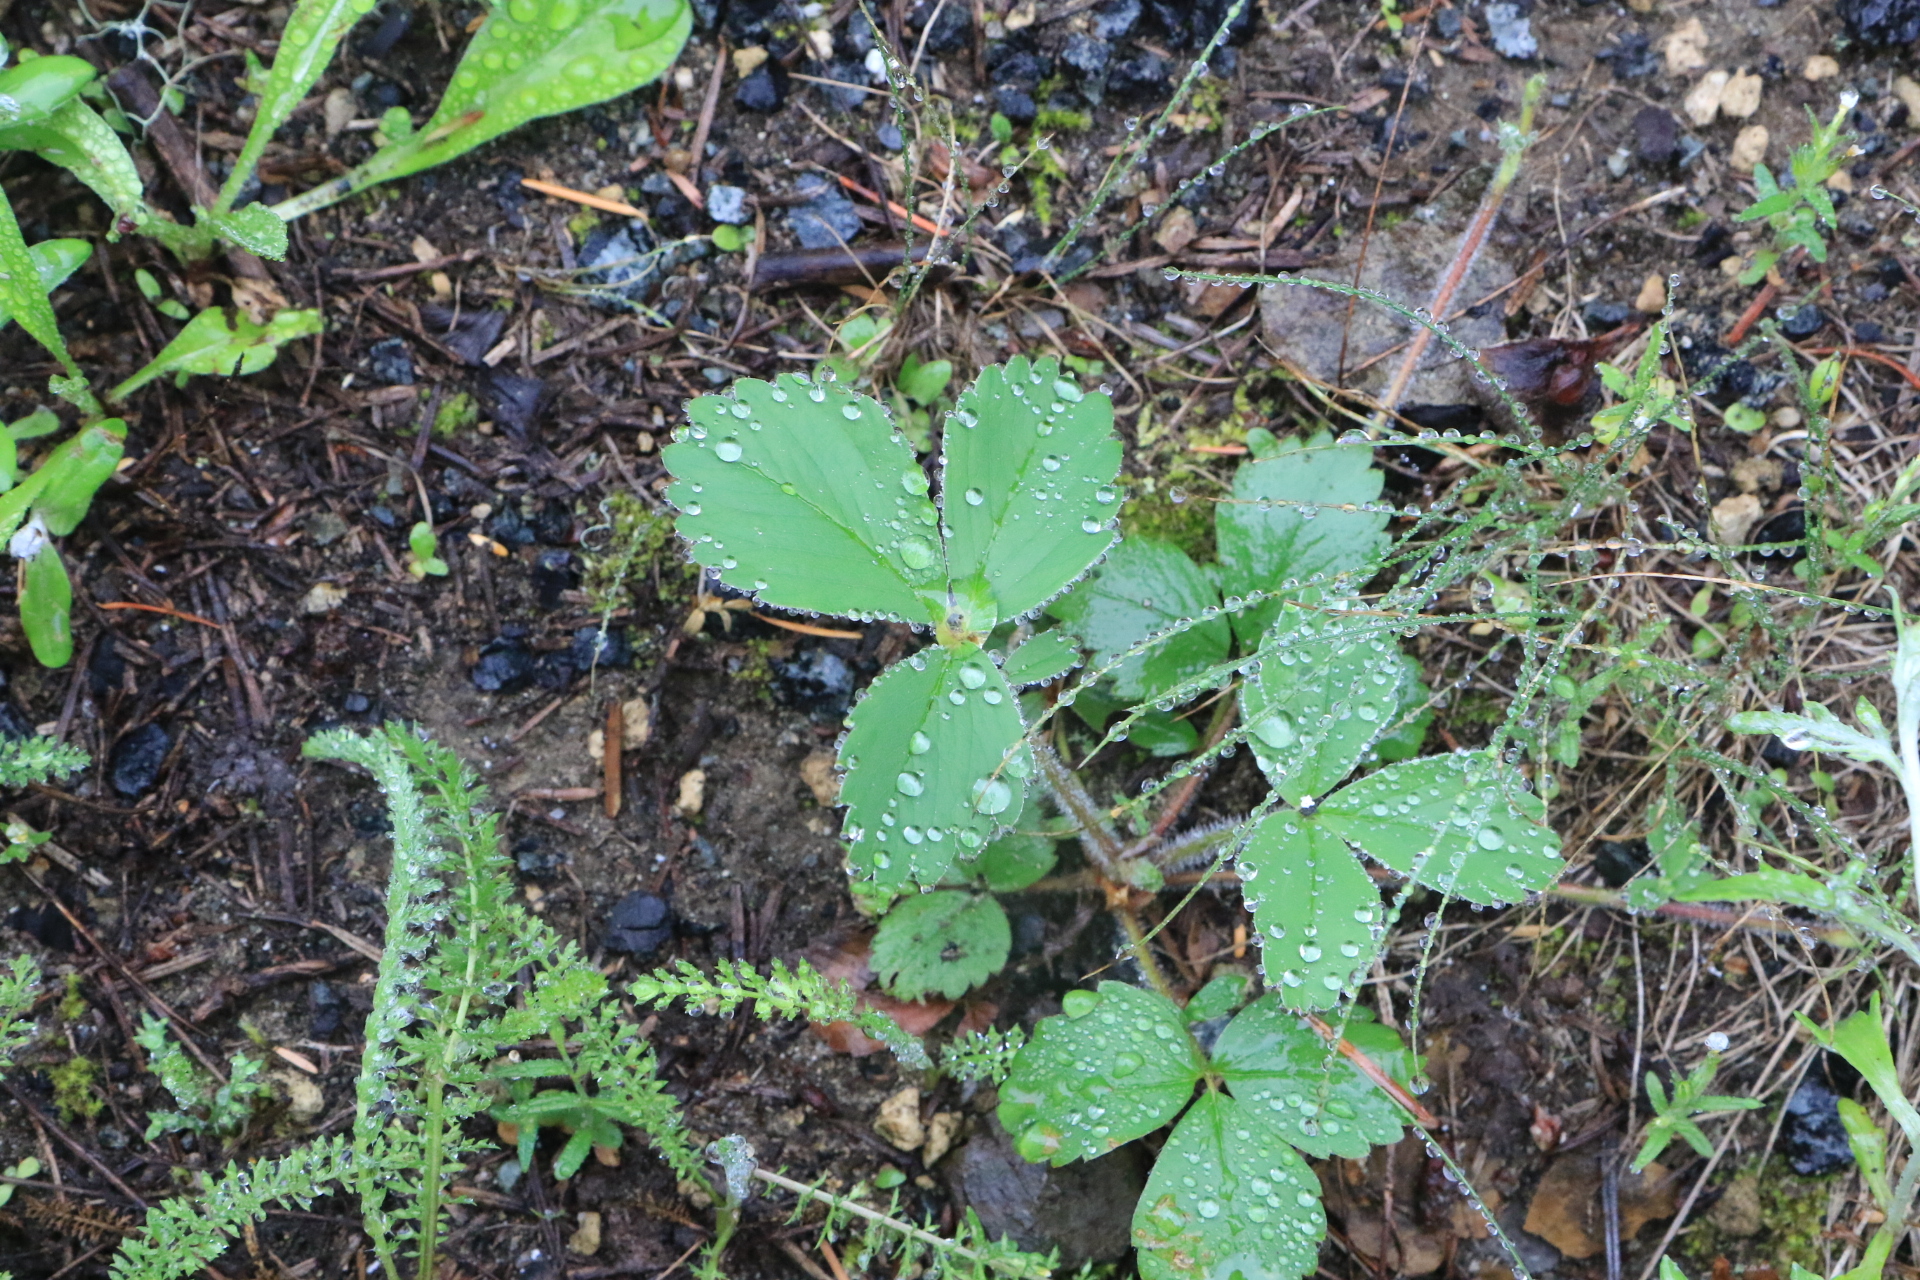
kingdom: Plantae
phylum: Tracheophyta
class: Magnoliopsida
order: Rosales
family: Rosaceae
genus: Fragaria
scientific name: Fragaria virginiana
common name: Thickleaved wild strawberry
